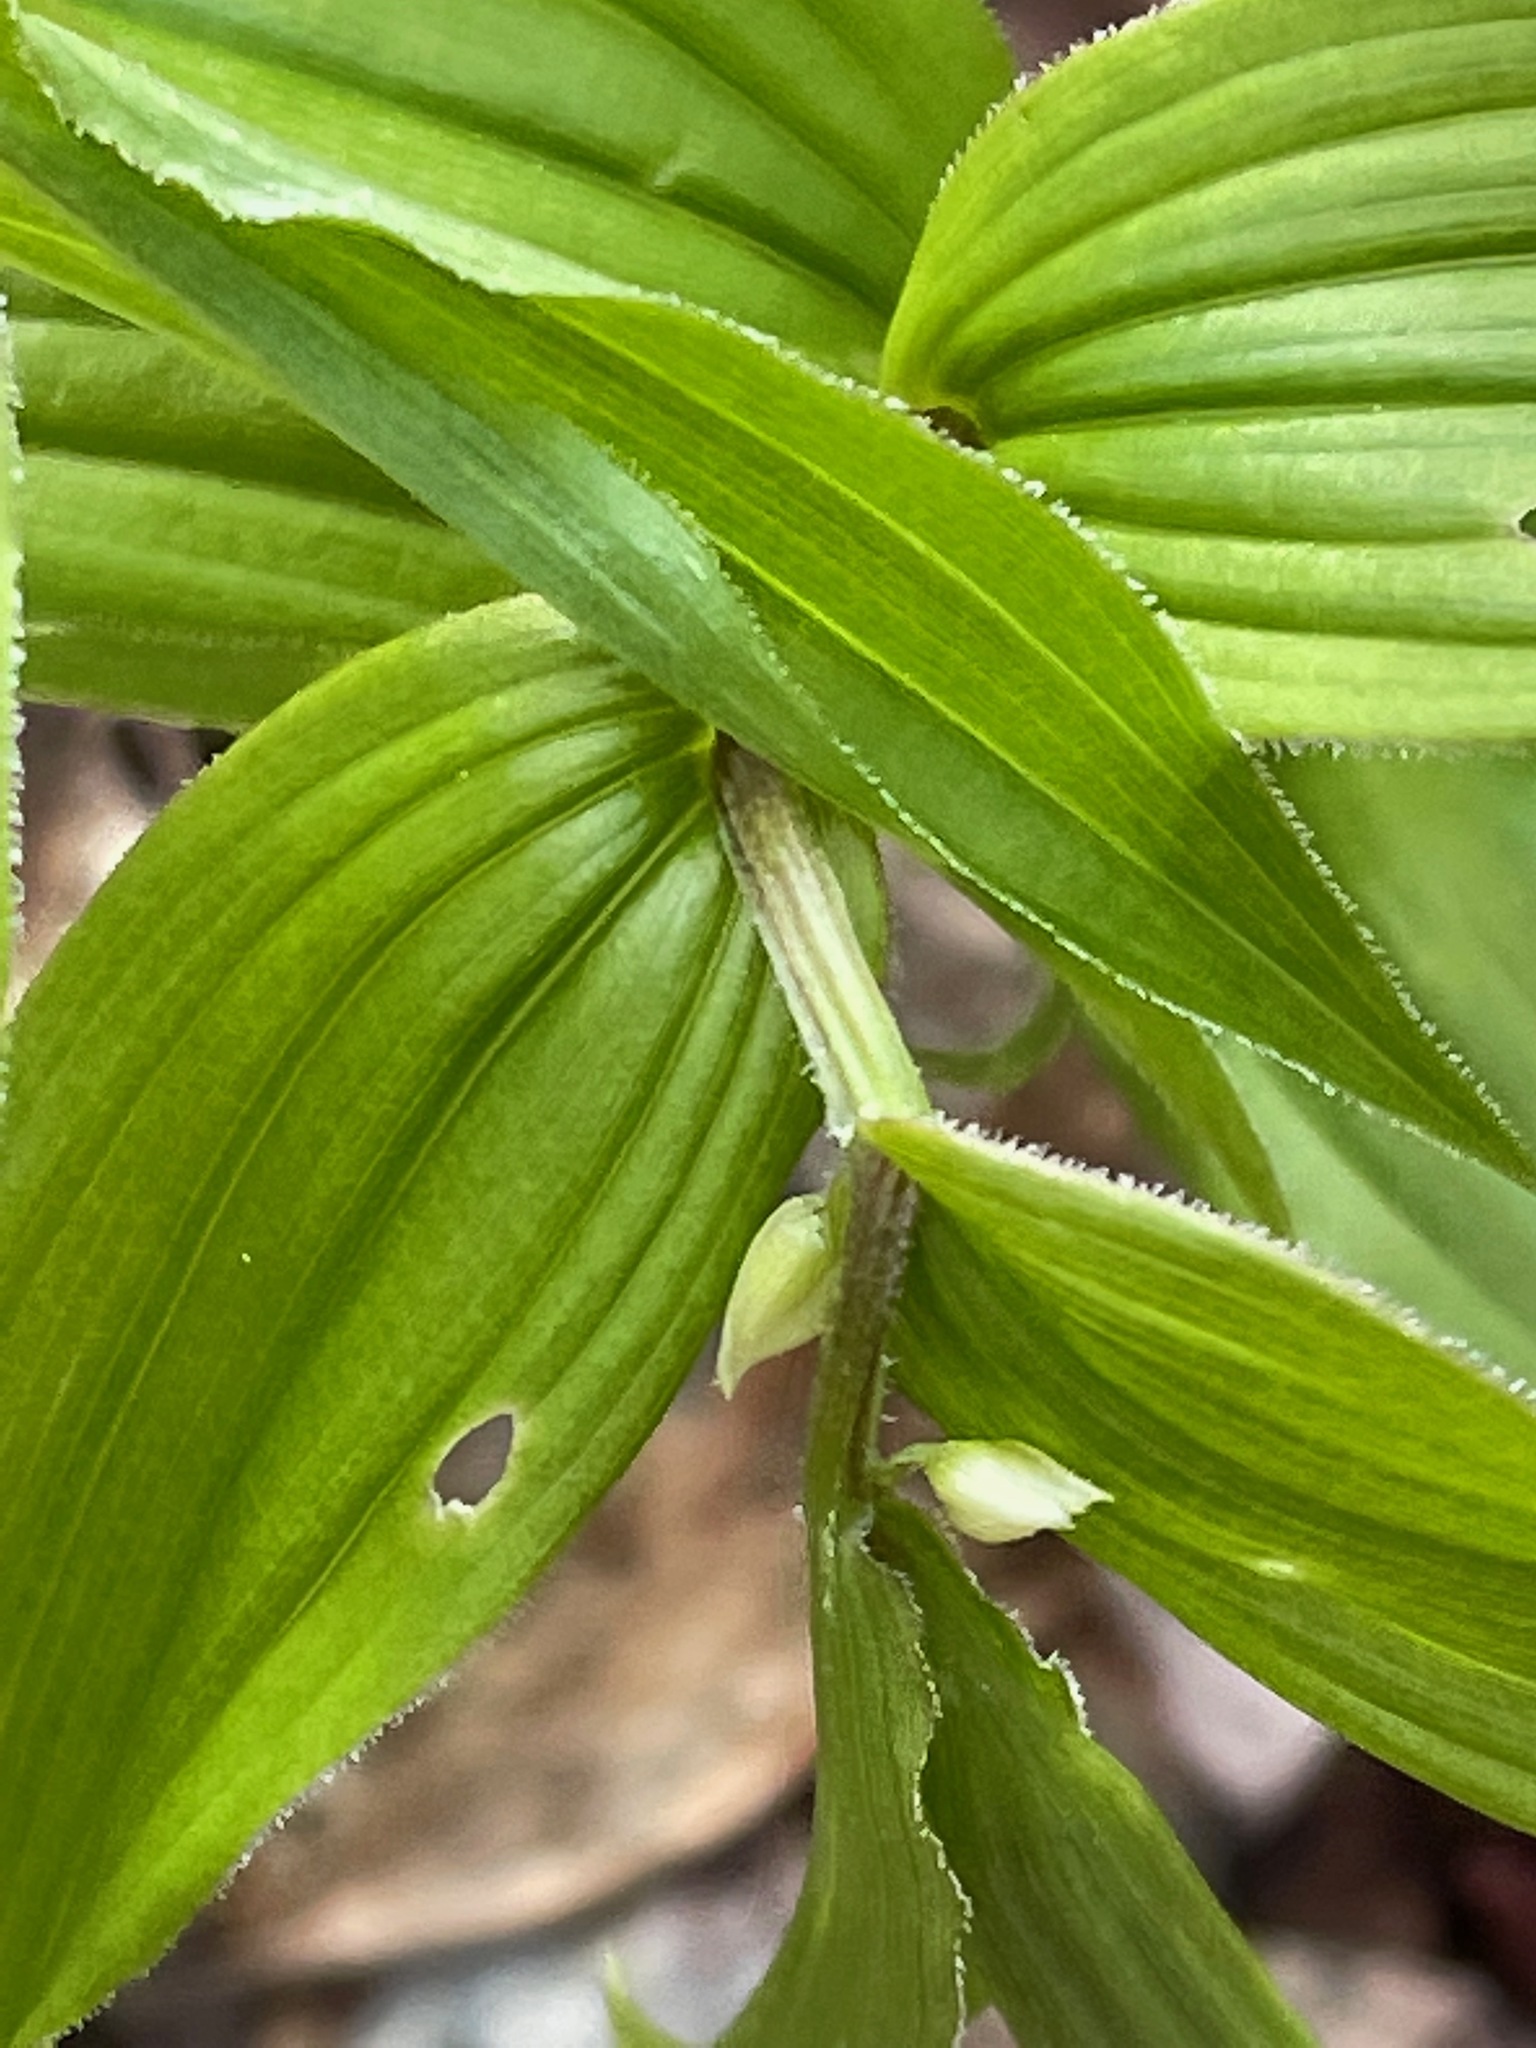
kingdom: Plantae
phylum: Tracheophyta
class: Liliopsida
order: Liliales
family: Liliaceae
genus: Streptopus
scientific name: Streptopus lanceolatus
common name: Rose mandarin
